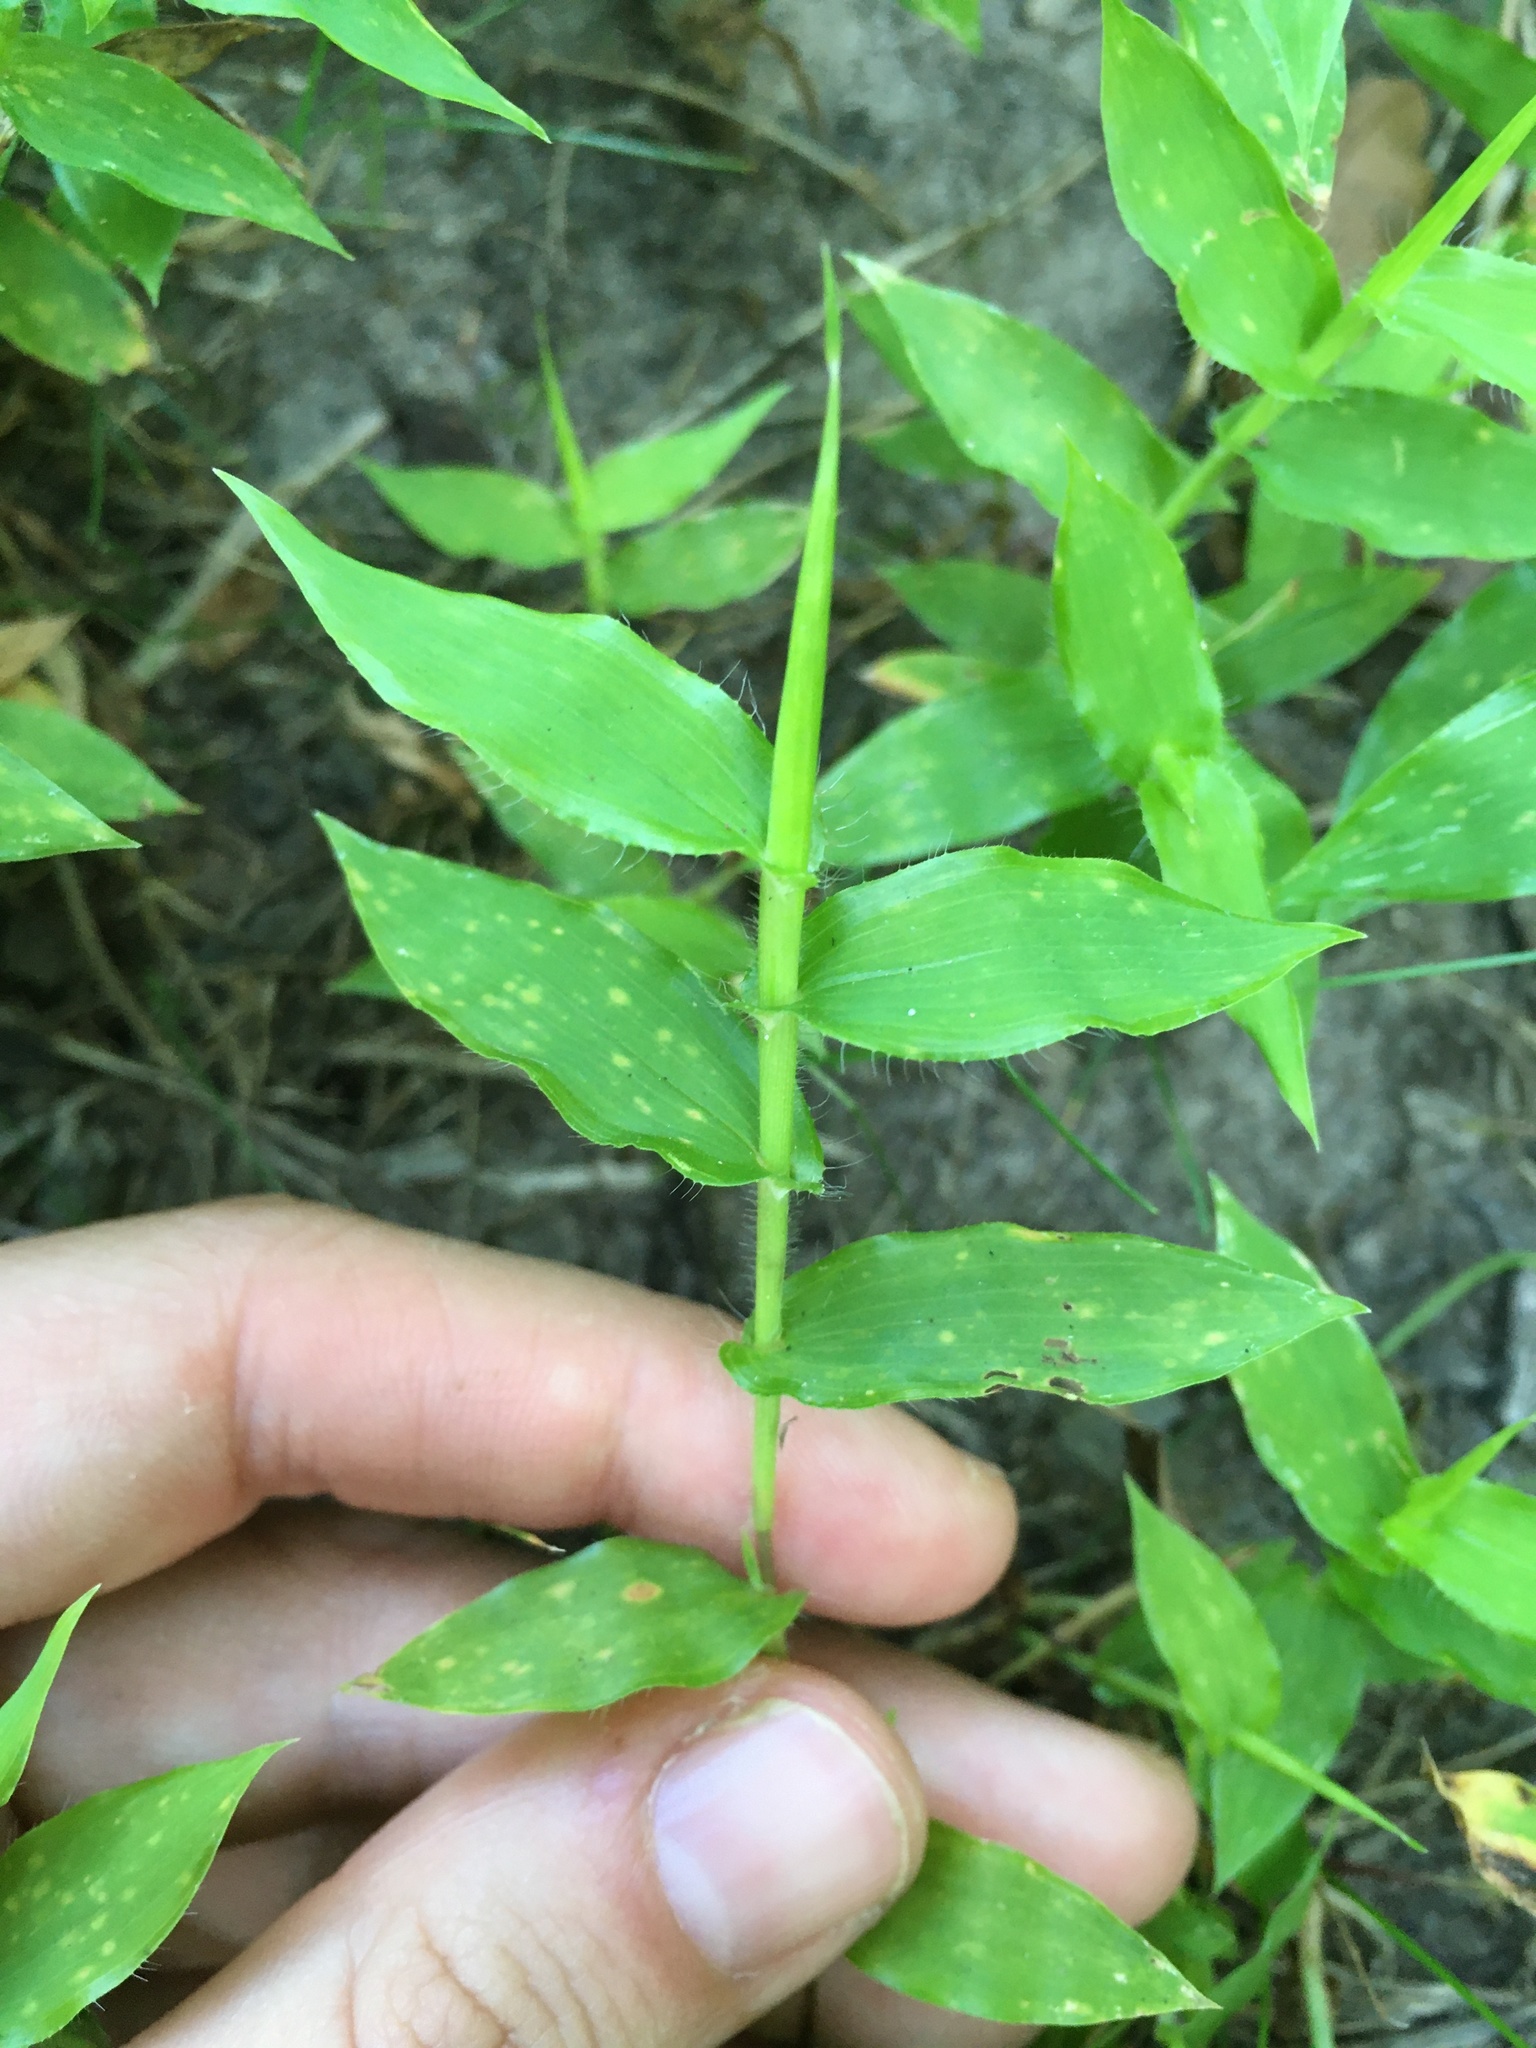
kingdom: Plantae
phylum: Tracheophyta
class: Liliopsida
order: Poales
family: Poaceae
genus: Arthraxon
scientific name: Arthraxon hispidus
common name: Small carpgrass
